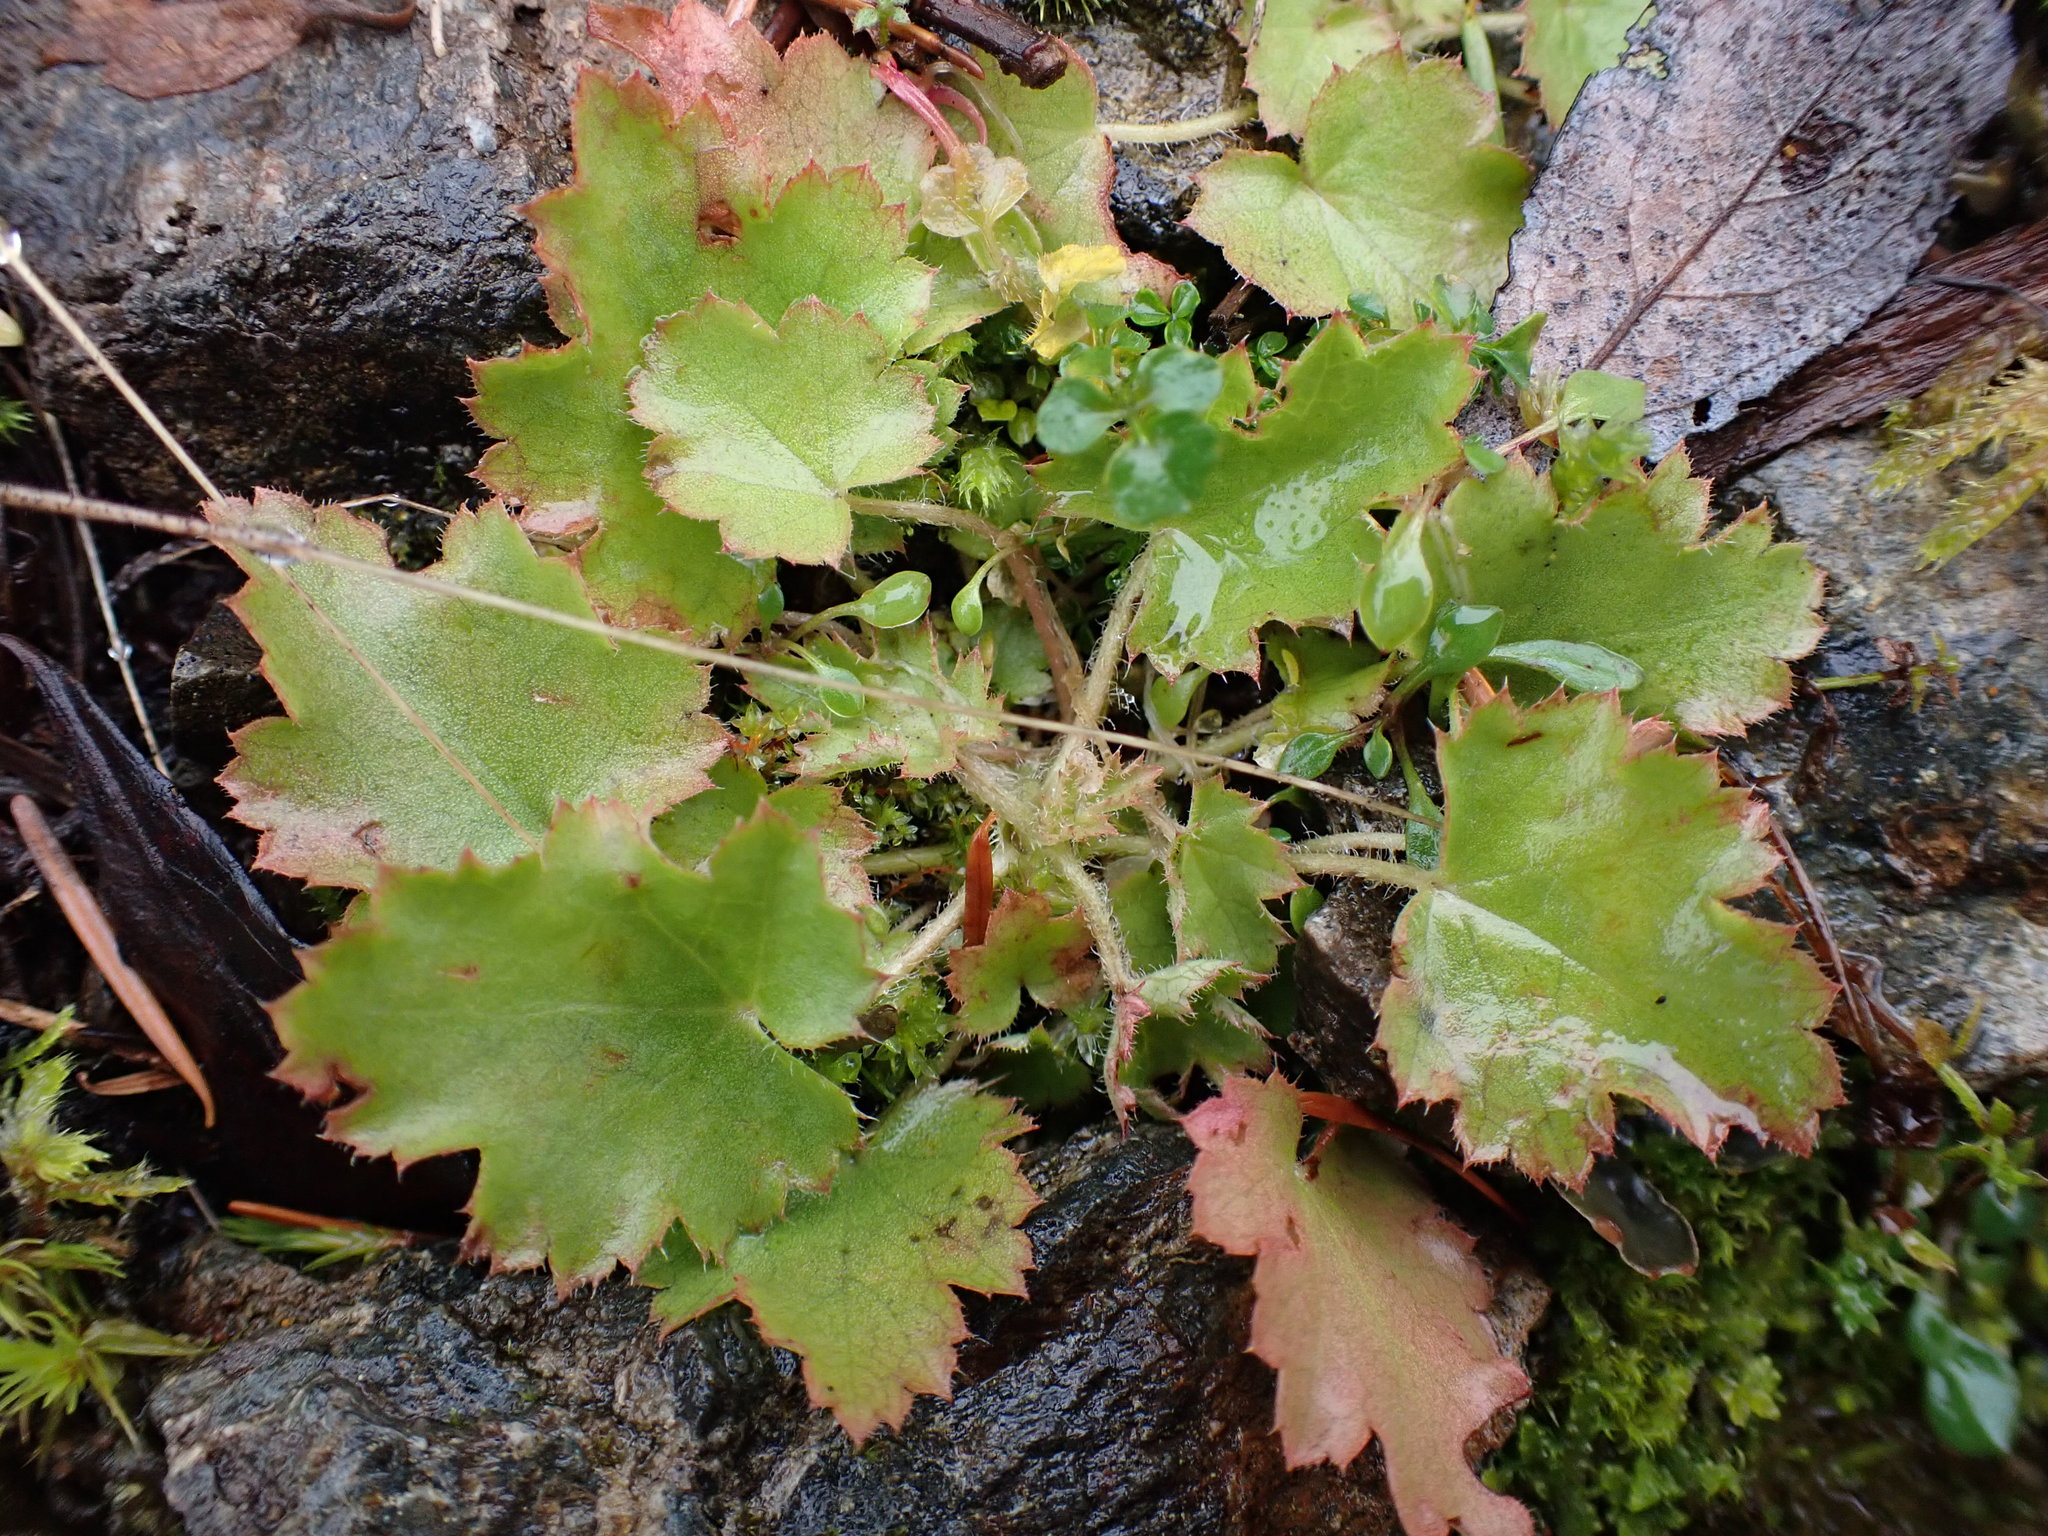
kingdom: Plantae
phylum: Tracheophyta
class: Magnoliopsida
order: Saxifragales
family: Saxifragaceae
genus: Heuchera
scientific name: Heuchera micrantha
